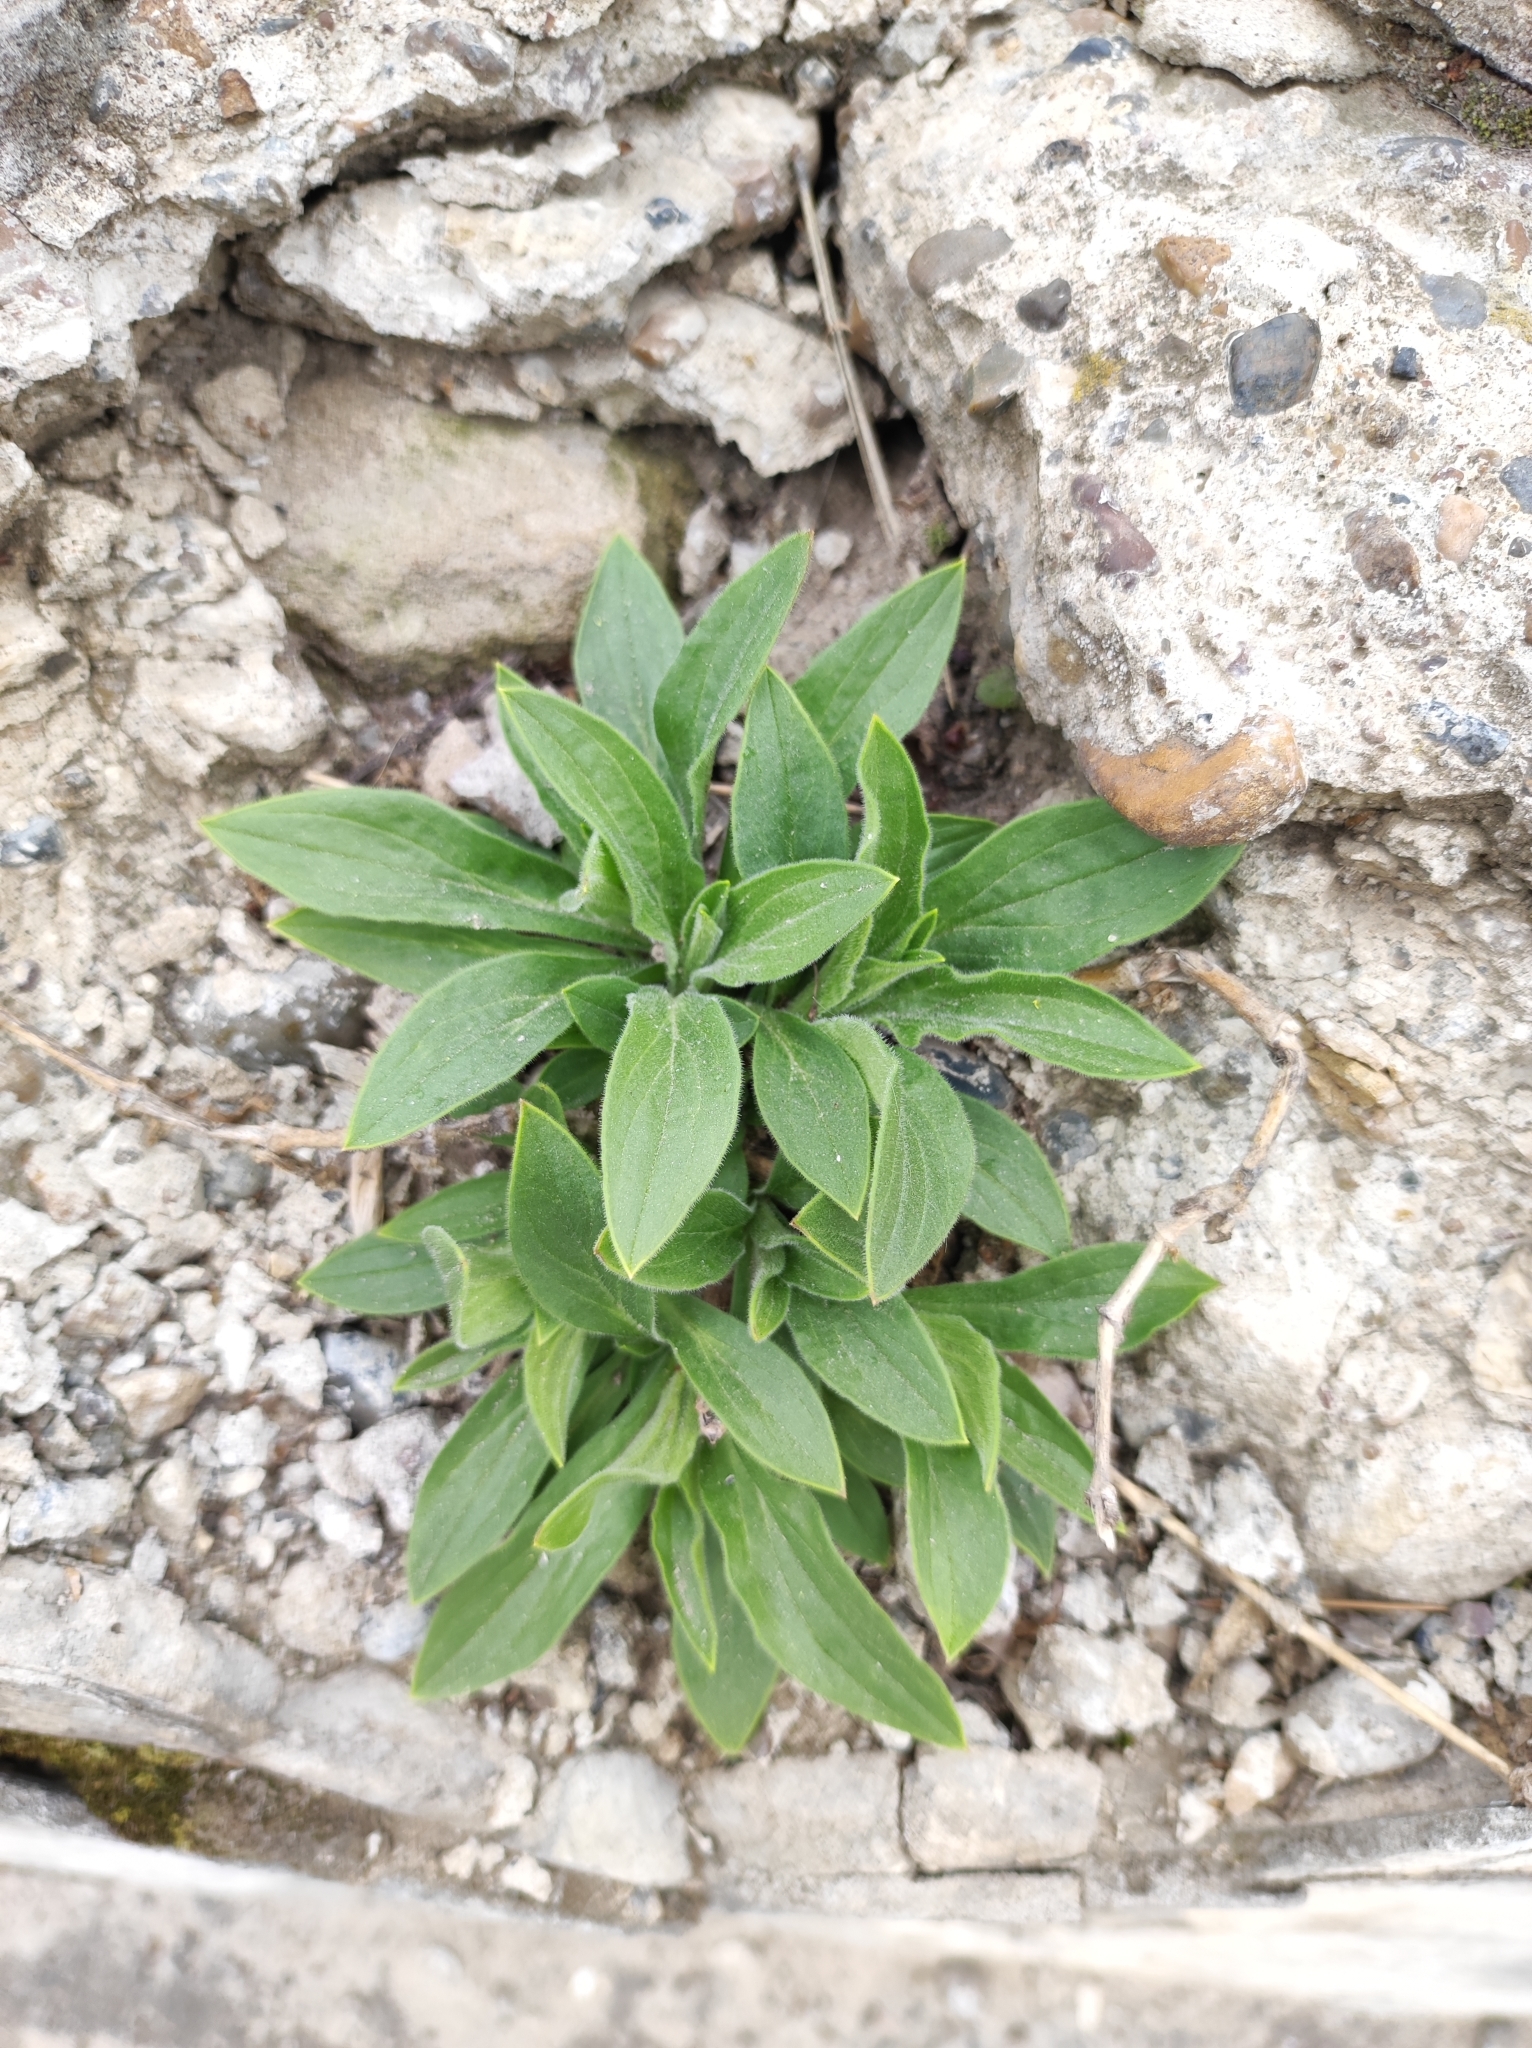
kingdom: Plantae
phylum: Tracheophyta
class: Magnoliopsida
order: Caryophyllales
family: Caryophyllaceae
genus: Silene
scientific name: Silene latifolia
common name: White campion
